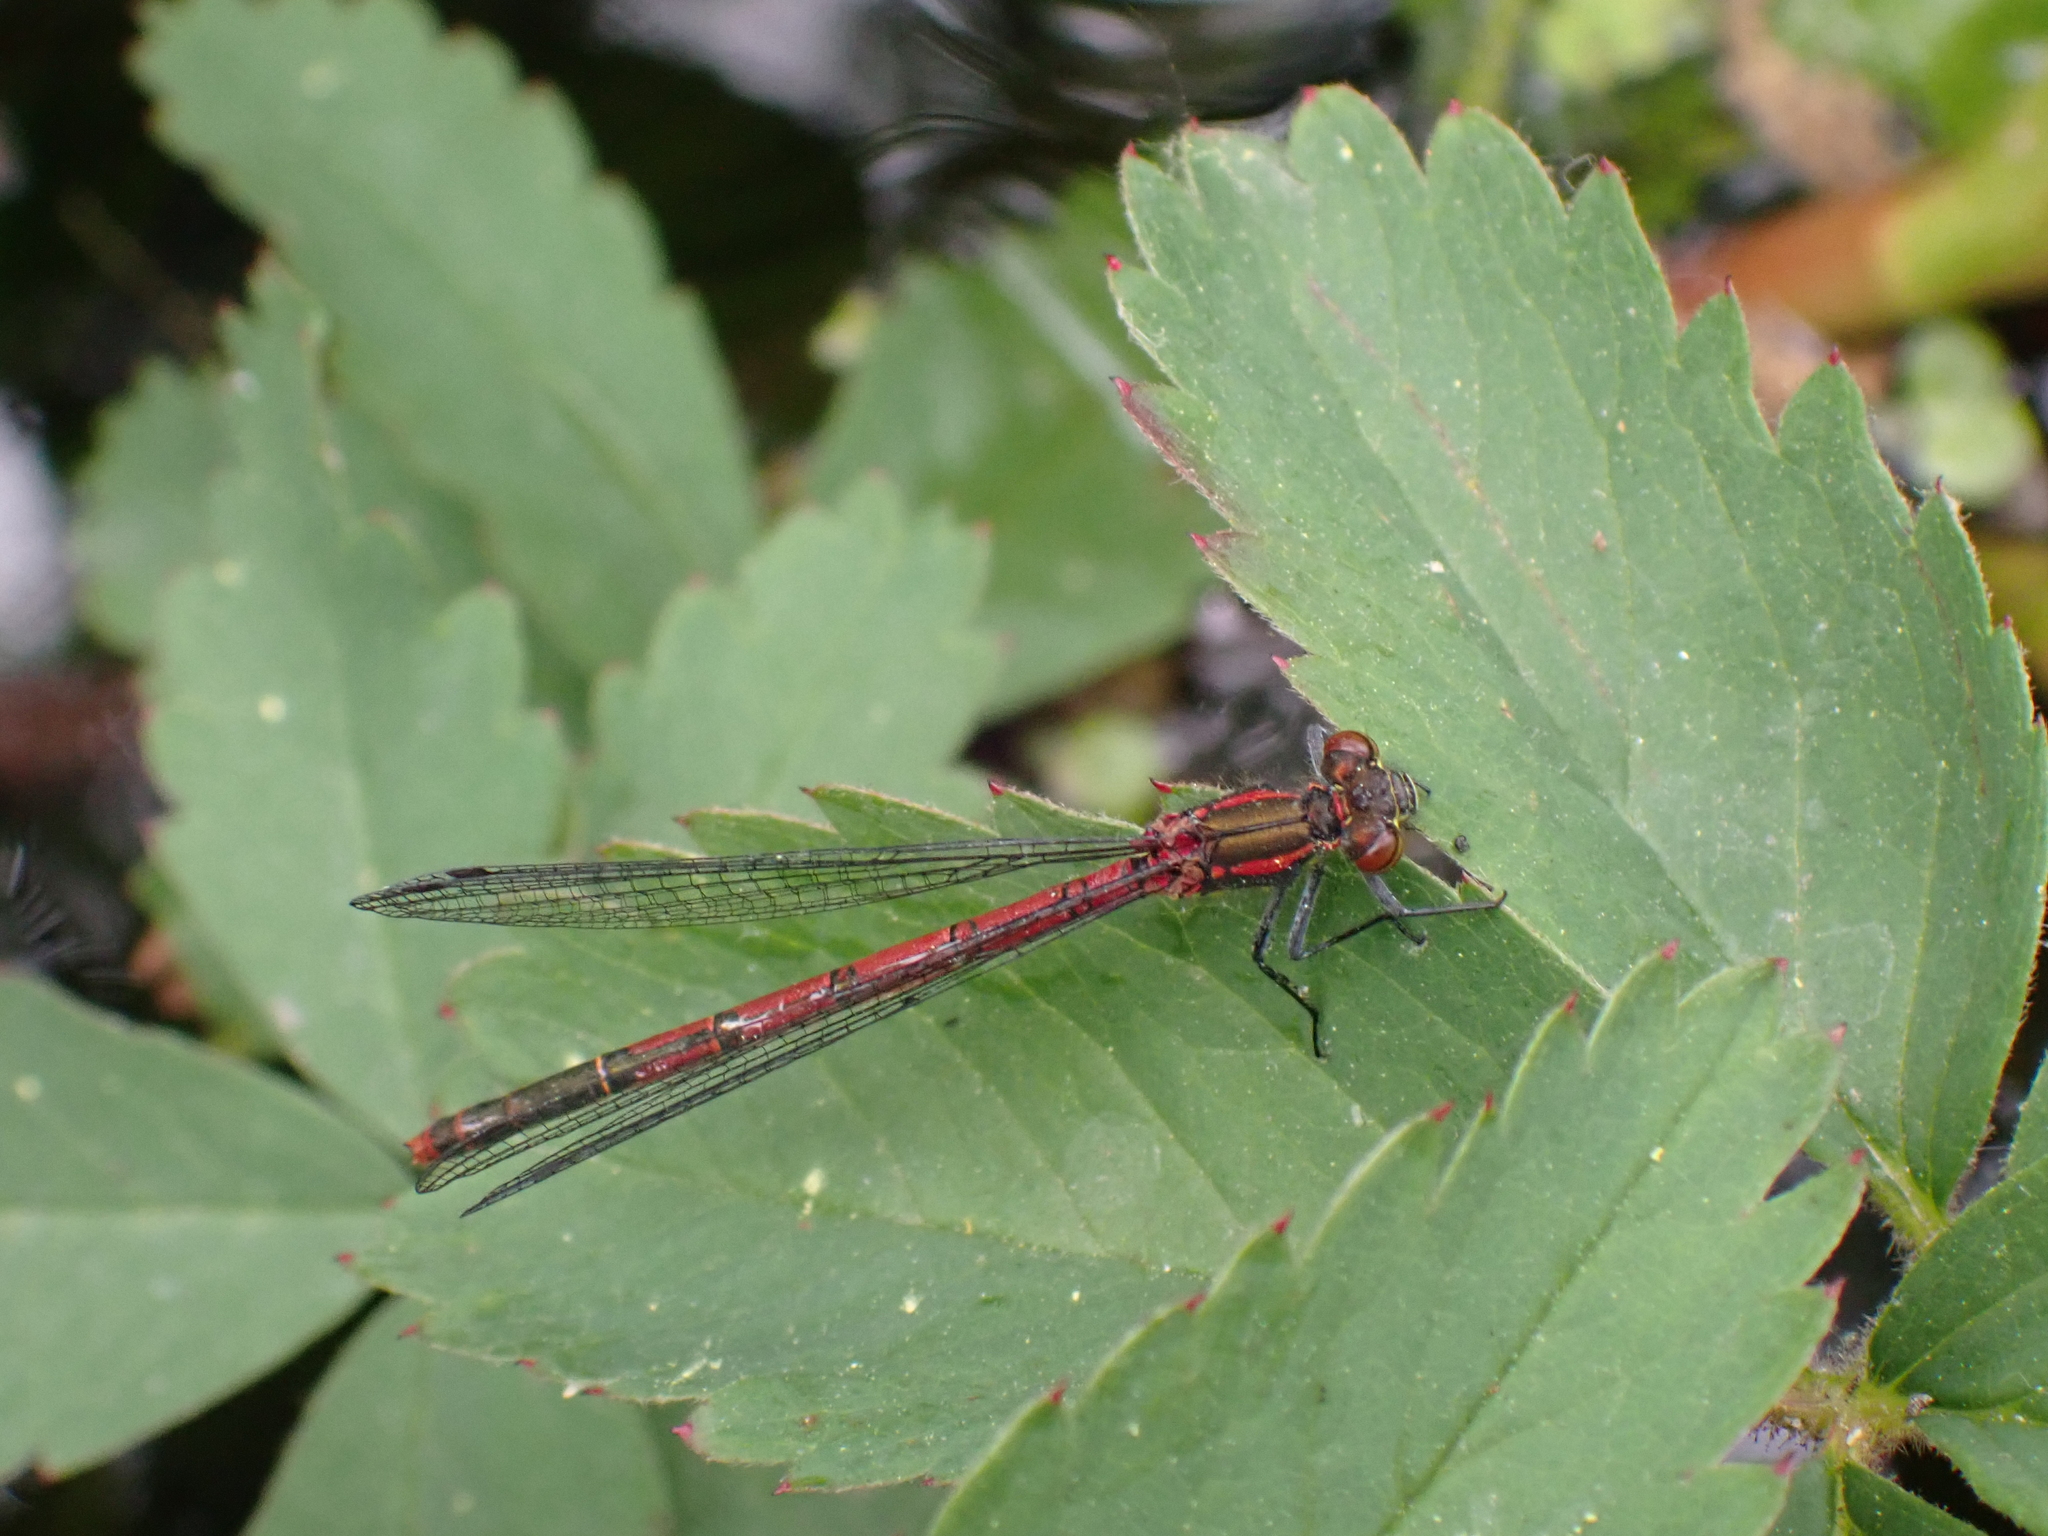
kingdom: Animalia
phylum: Arthropoda
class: Insecta
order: Odonata
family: Coenagrionidae
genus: Pyrrhosoma
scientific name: Pyrrhosoma nymphula
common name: Large red damsel
